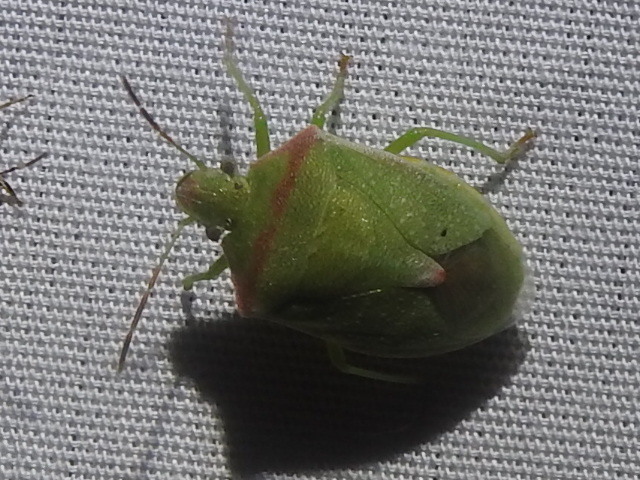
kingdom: Animalia
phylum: Arthropoda
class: Insecta
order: Hemiptera
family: Pentatomidae
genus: Thyanta
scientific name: Thyanta custator
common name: Stink bug
